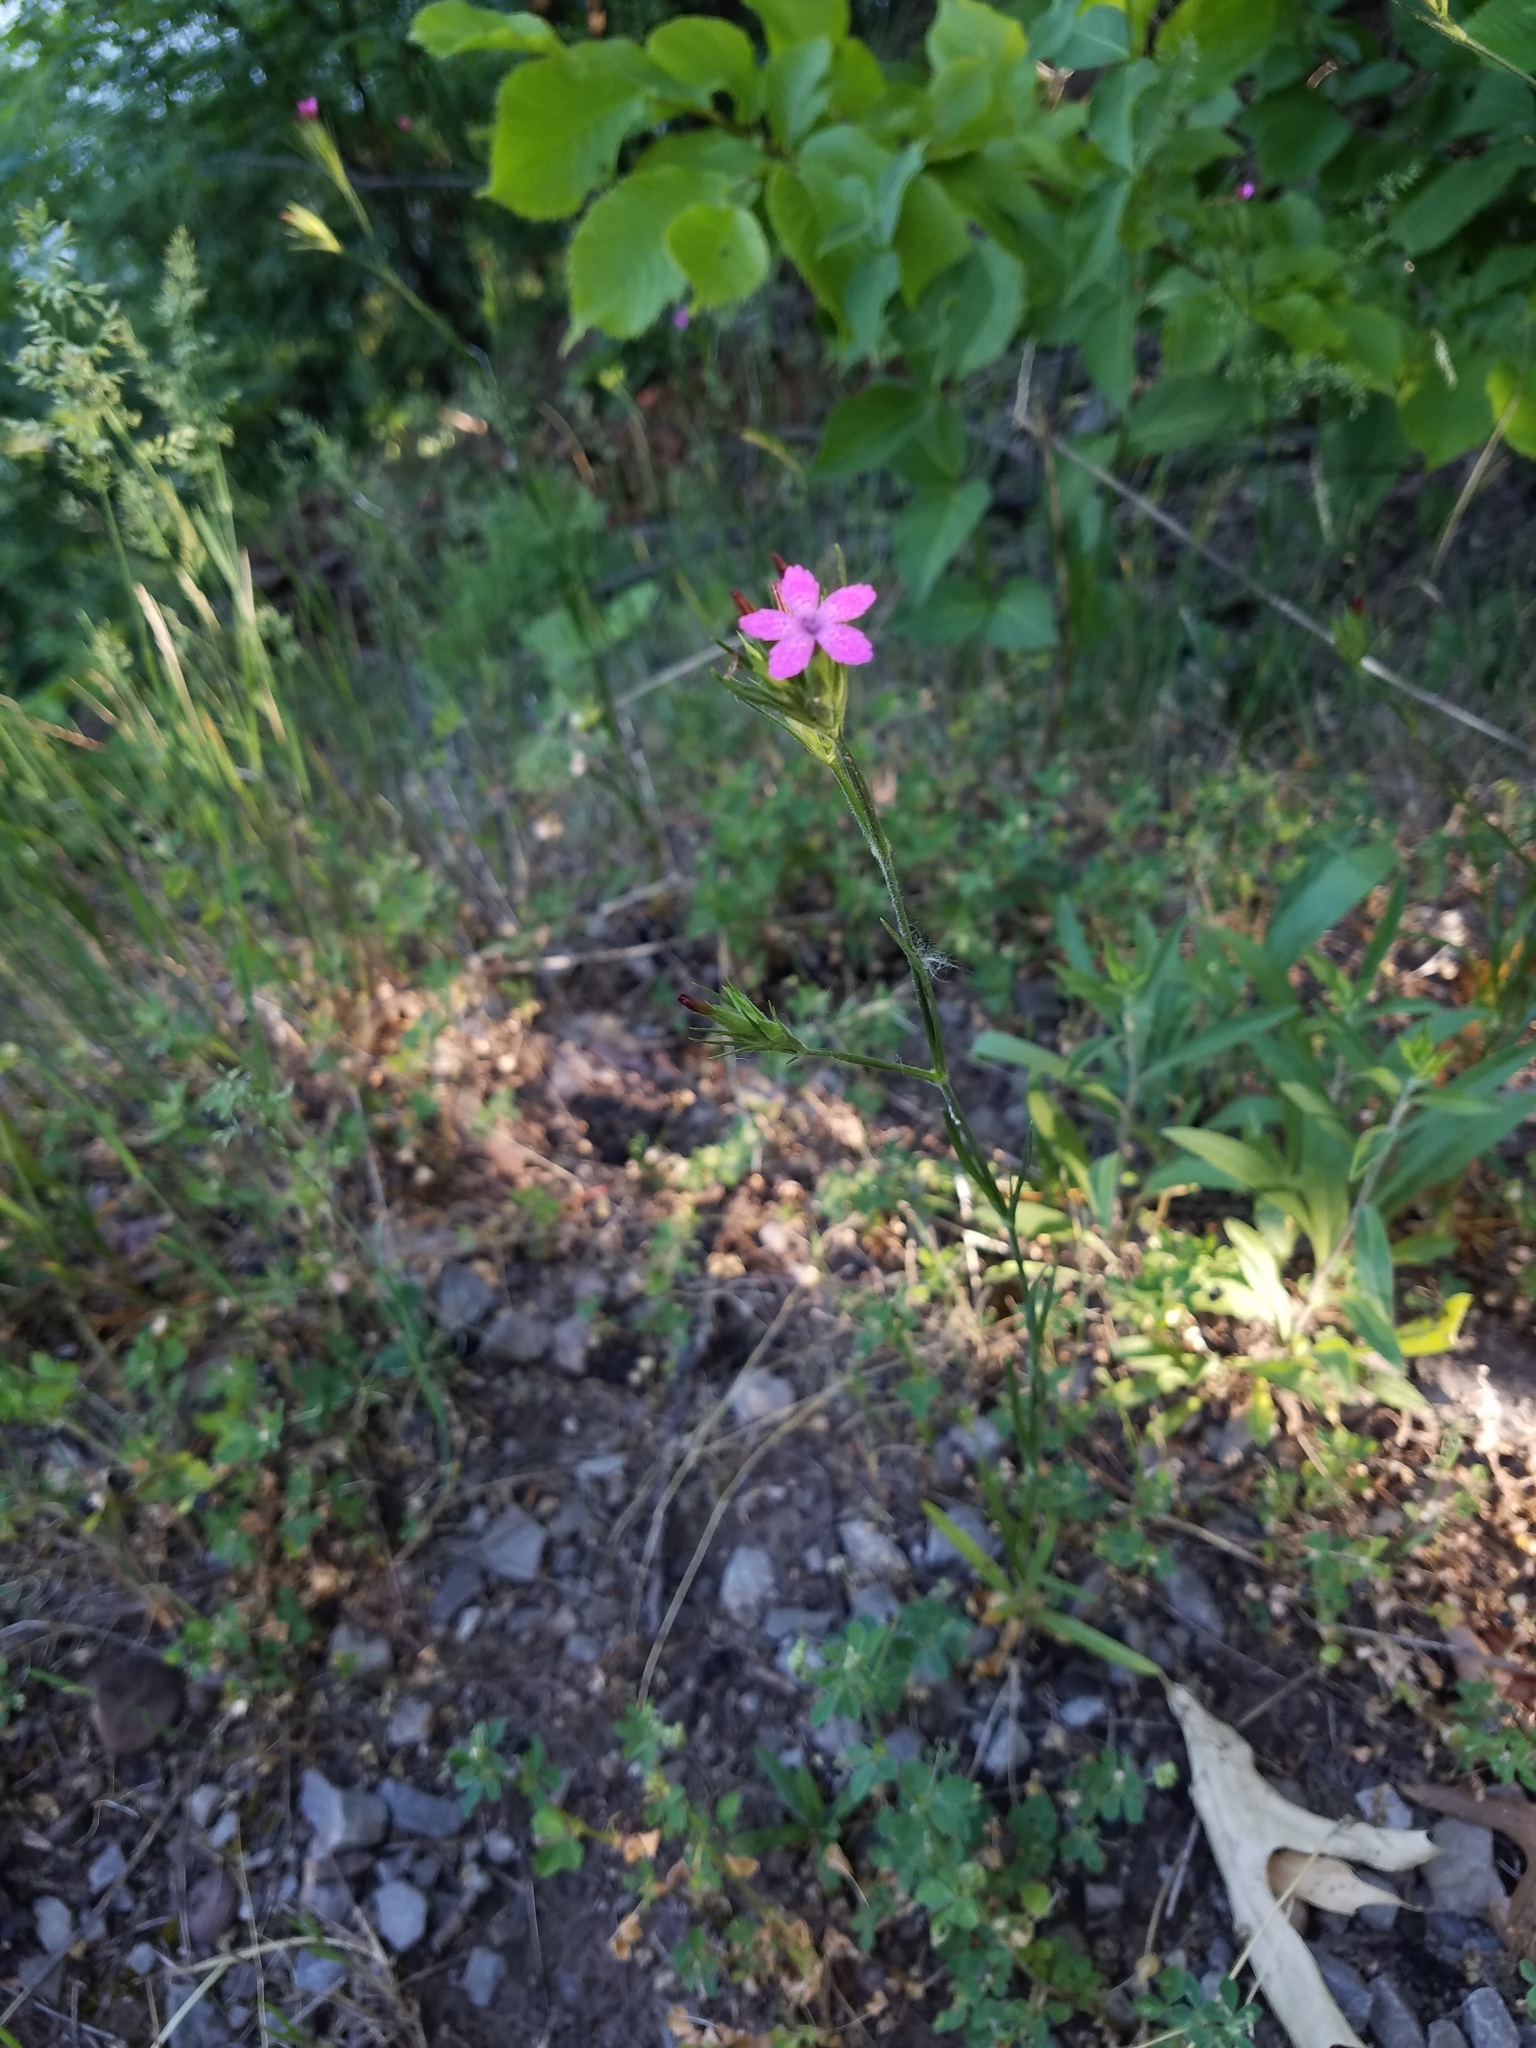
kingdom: Plantae
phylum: Tracheophyta
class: Magnoliopsida
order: Caryophyllales
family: Caryophyllaceae
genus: Dianthus
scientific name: Dianthus armeria
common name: Deptford pink
